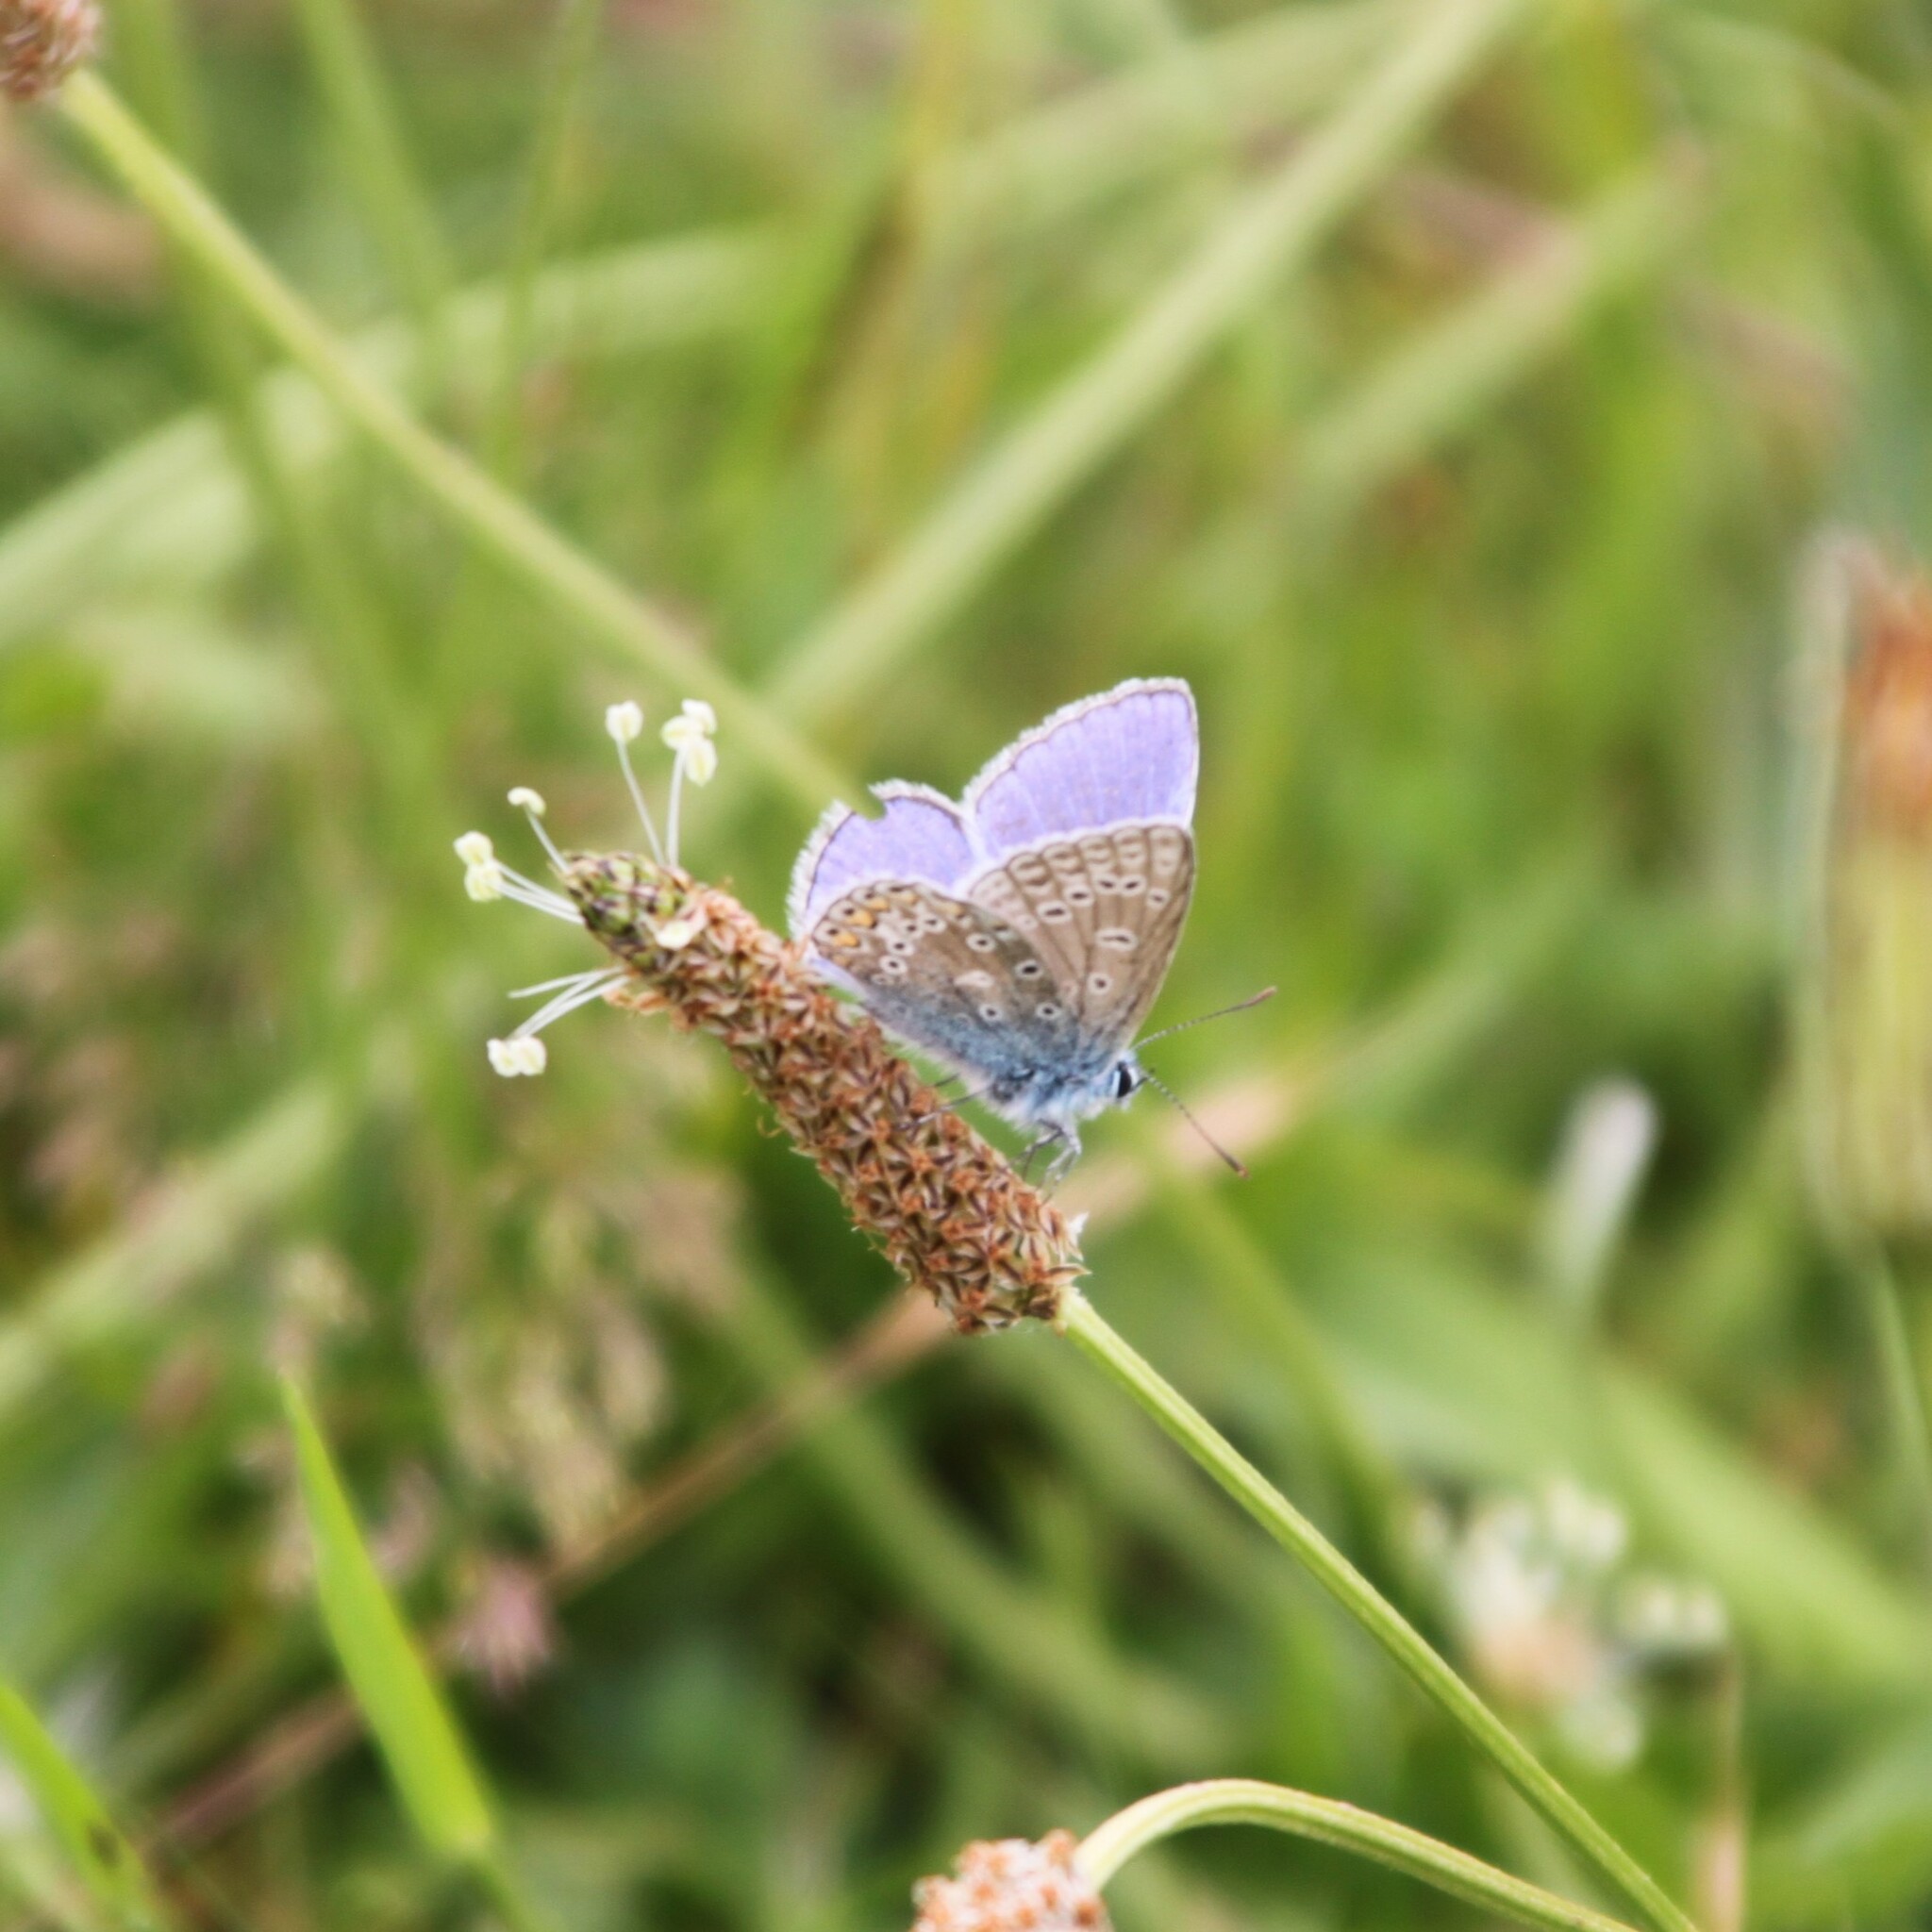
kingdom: Animalia
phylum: Arthropoda
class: Insecta
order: Lepidoptera
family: Lycaenidae
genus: Polyommatus
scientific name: Polyommatus icarus
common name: Common blue
